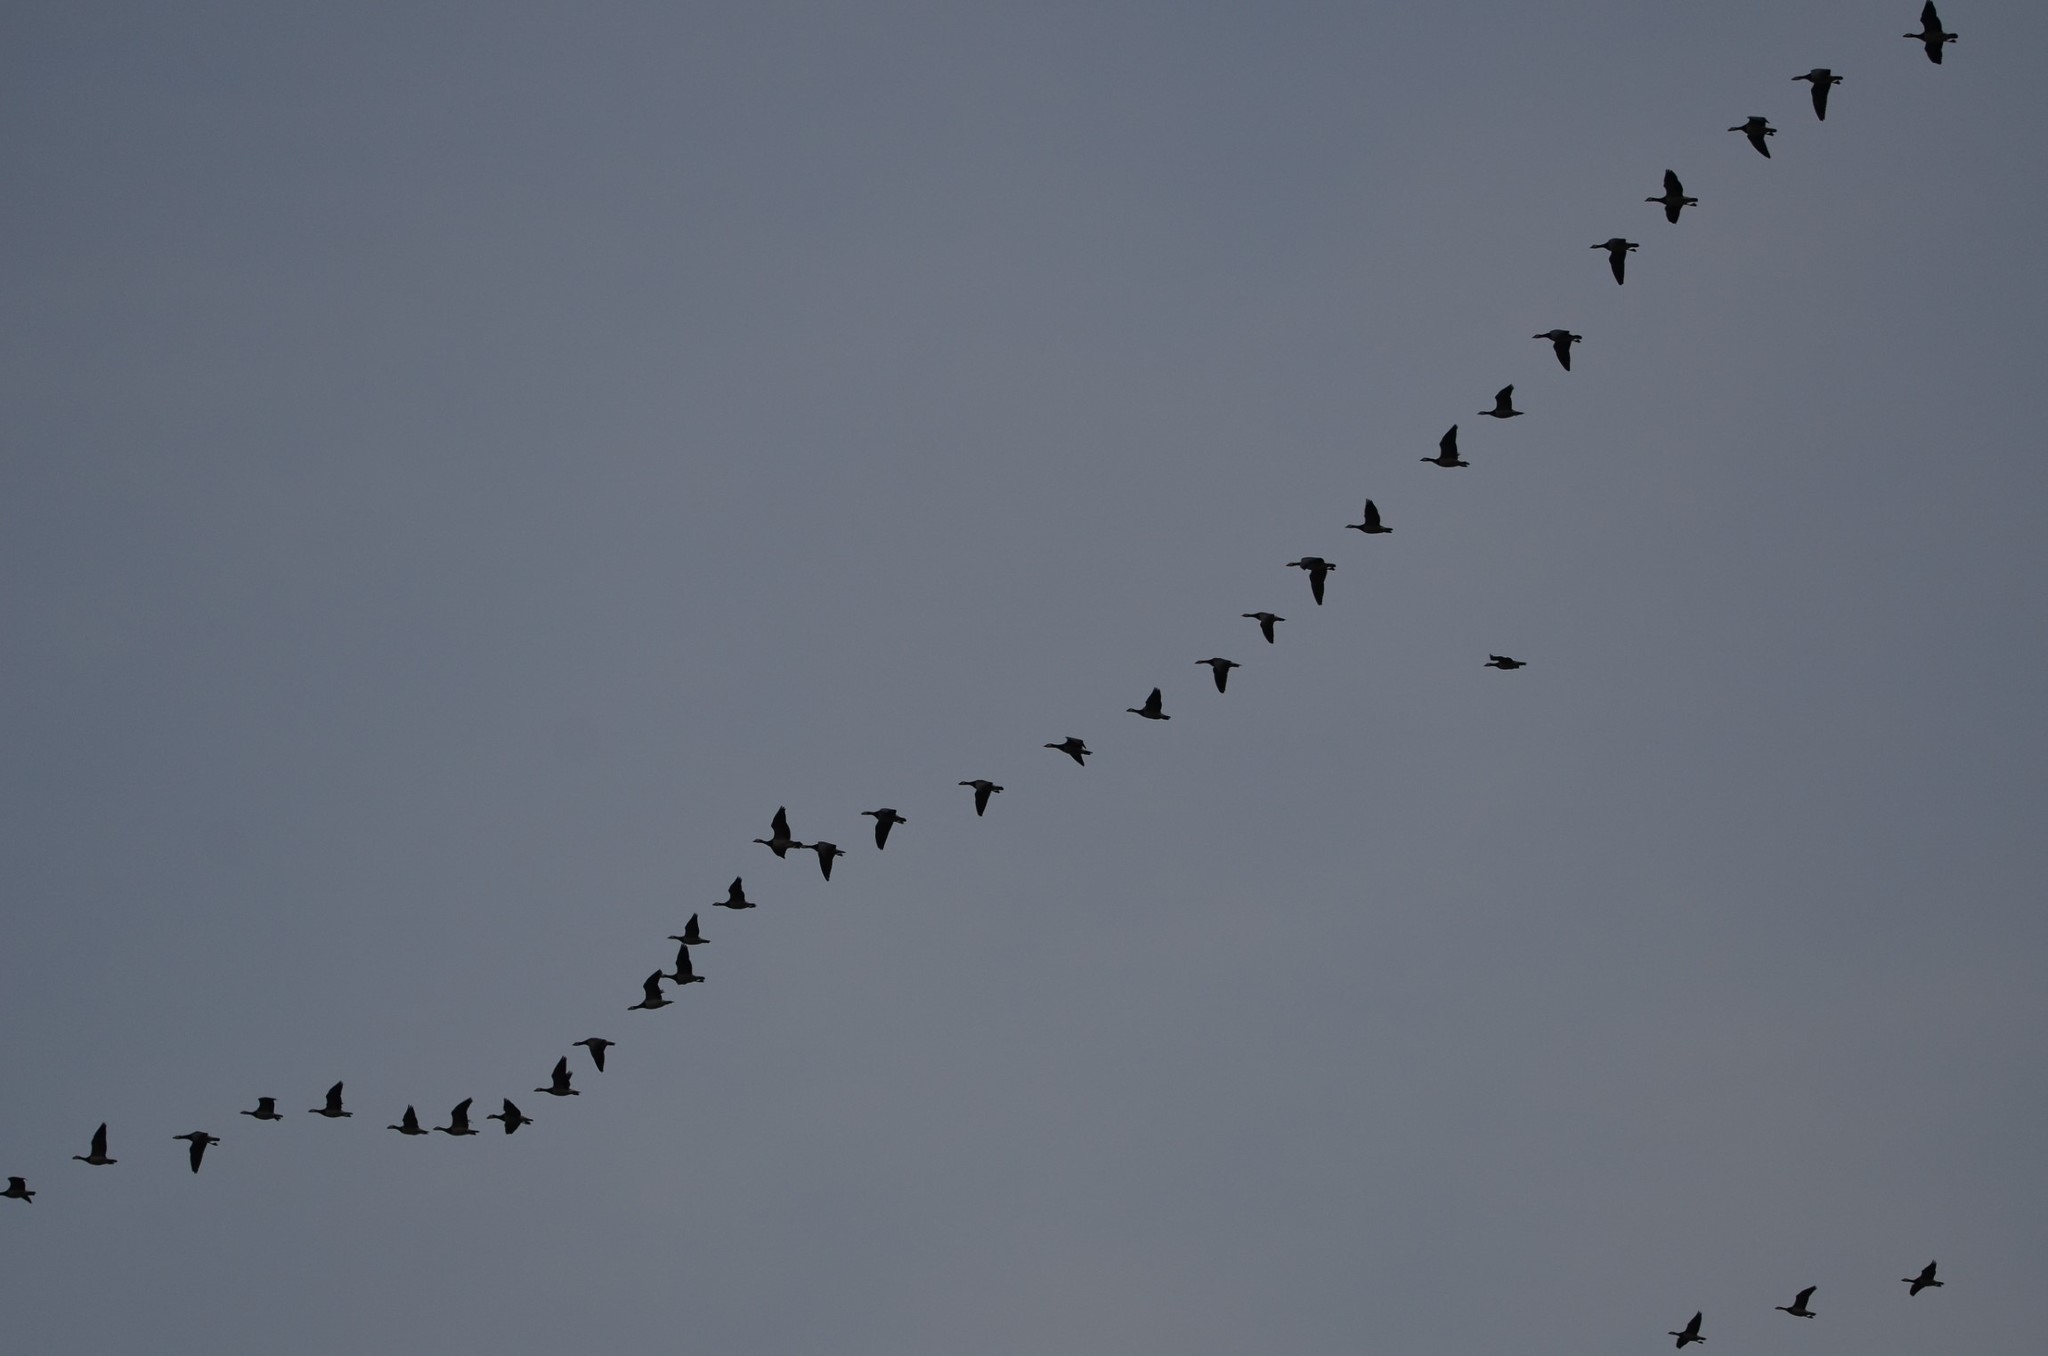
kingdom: Animalia
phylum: Chordata
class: Aves
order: Anseriformes
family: Anatidae
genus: Branta
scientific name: Branta leucopsis
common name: Barnacle goose
